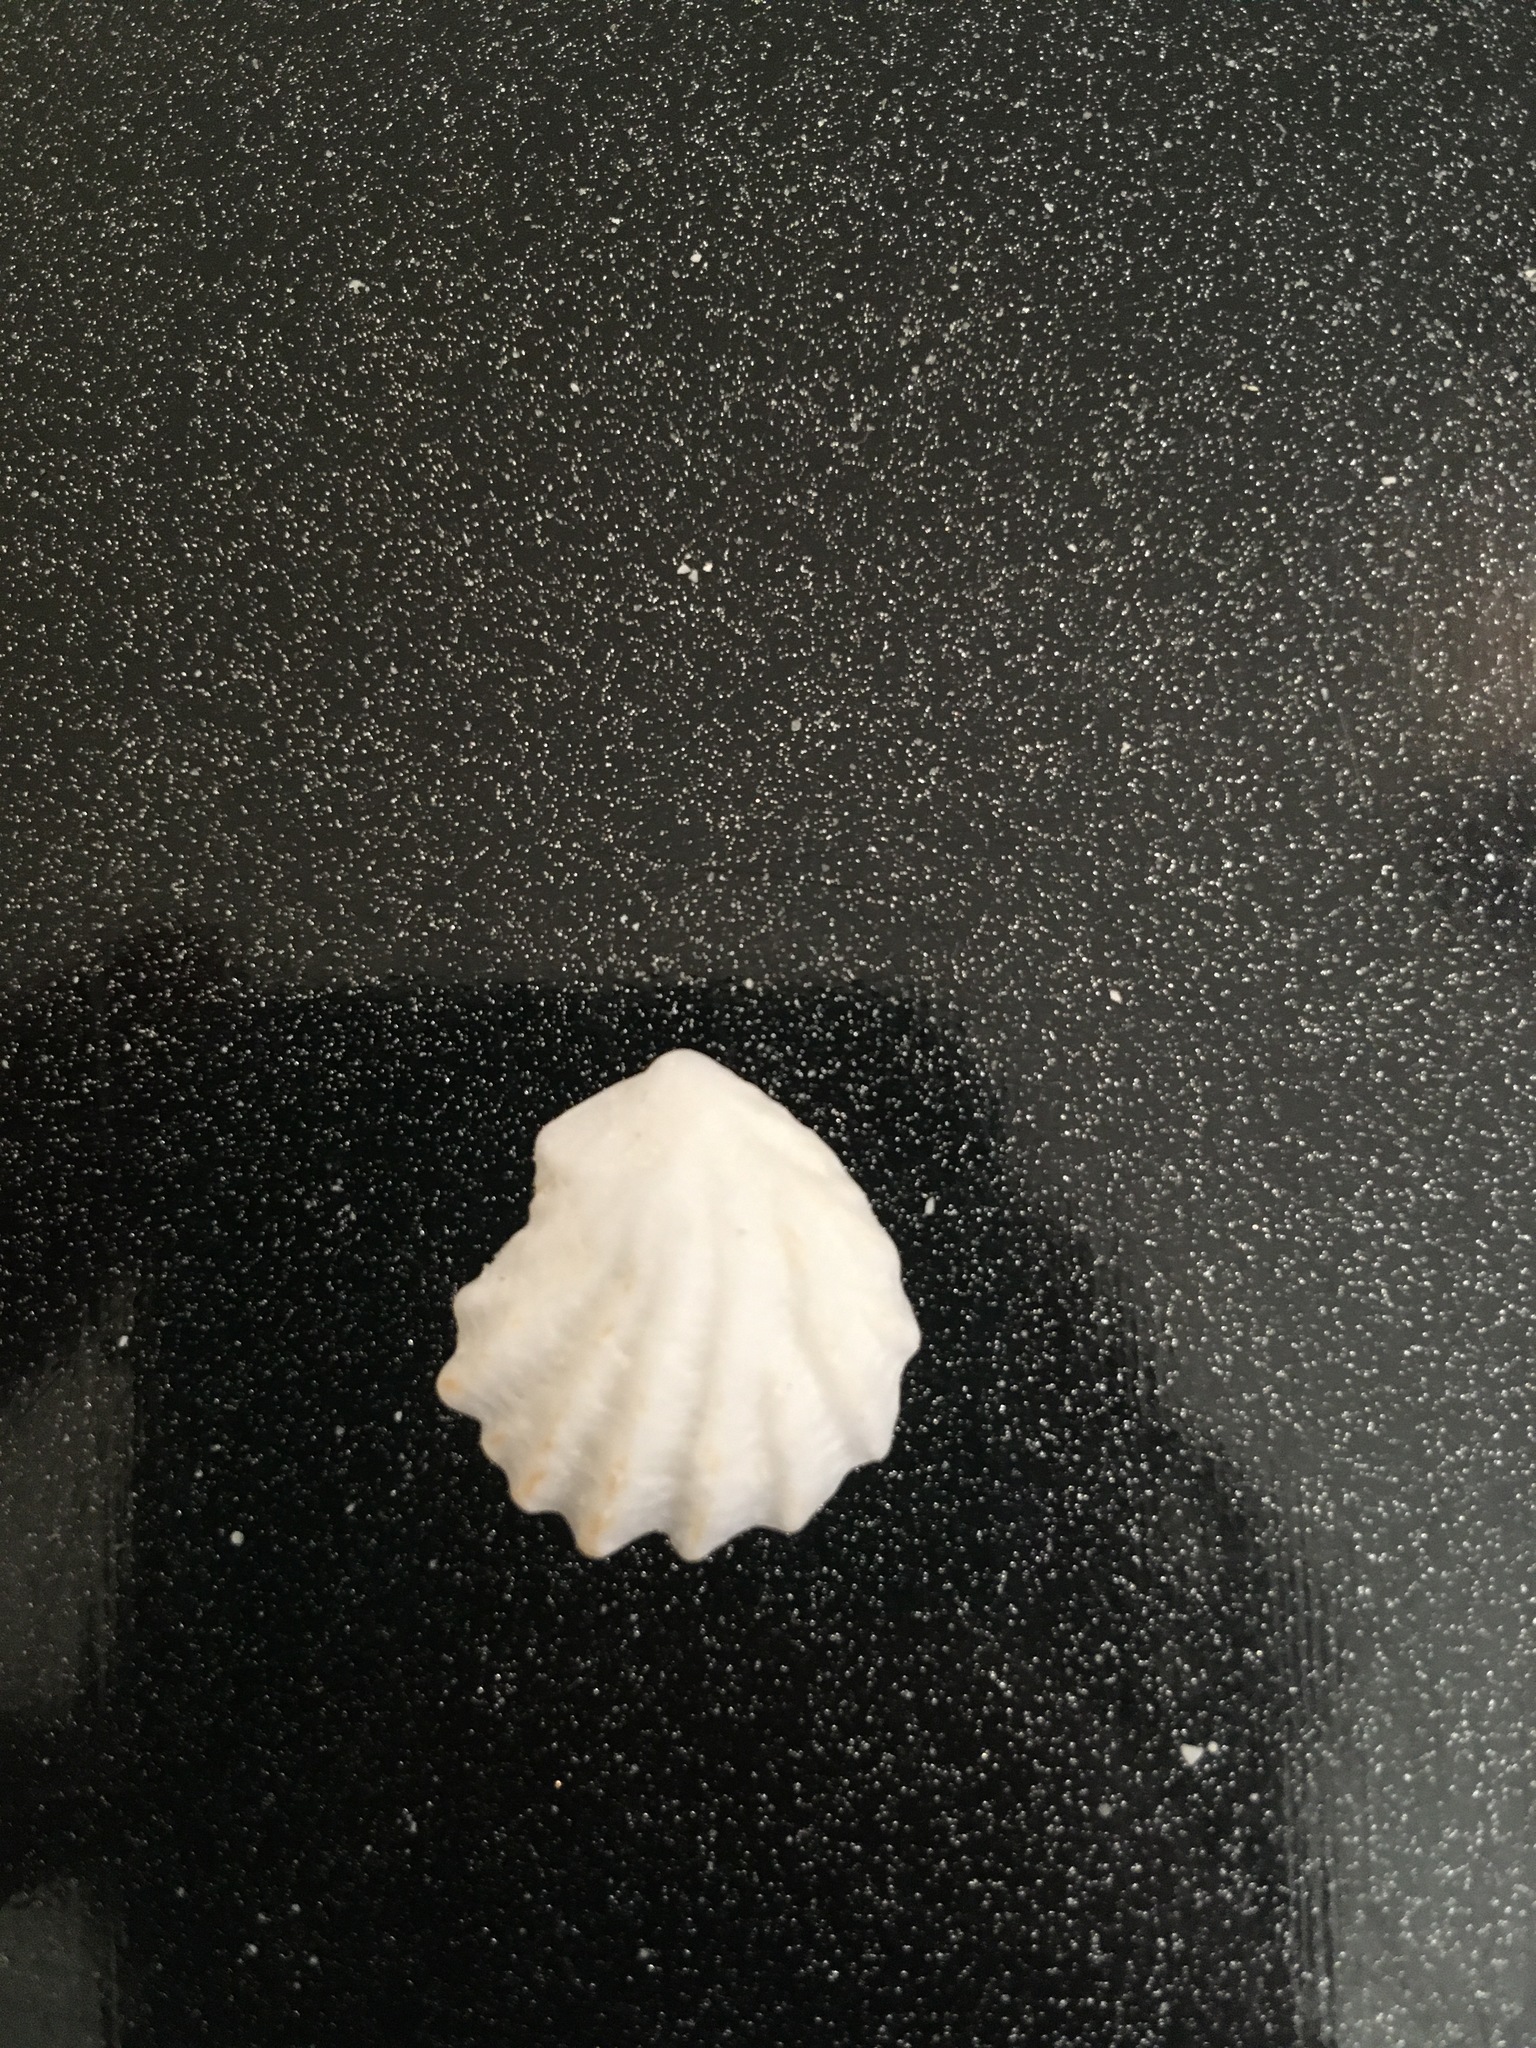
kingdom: Animalia
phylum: Mollusca
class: Bivalvia
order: Pectinida
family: Plicatulidae
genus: Plicatula
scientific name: Plicatula gibbosa
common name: Atlantic kitten's paw
